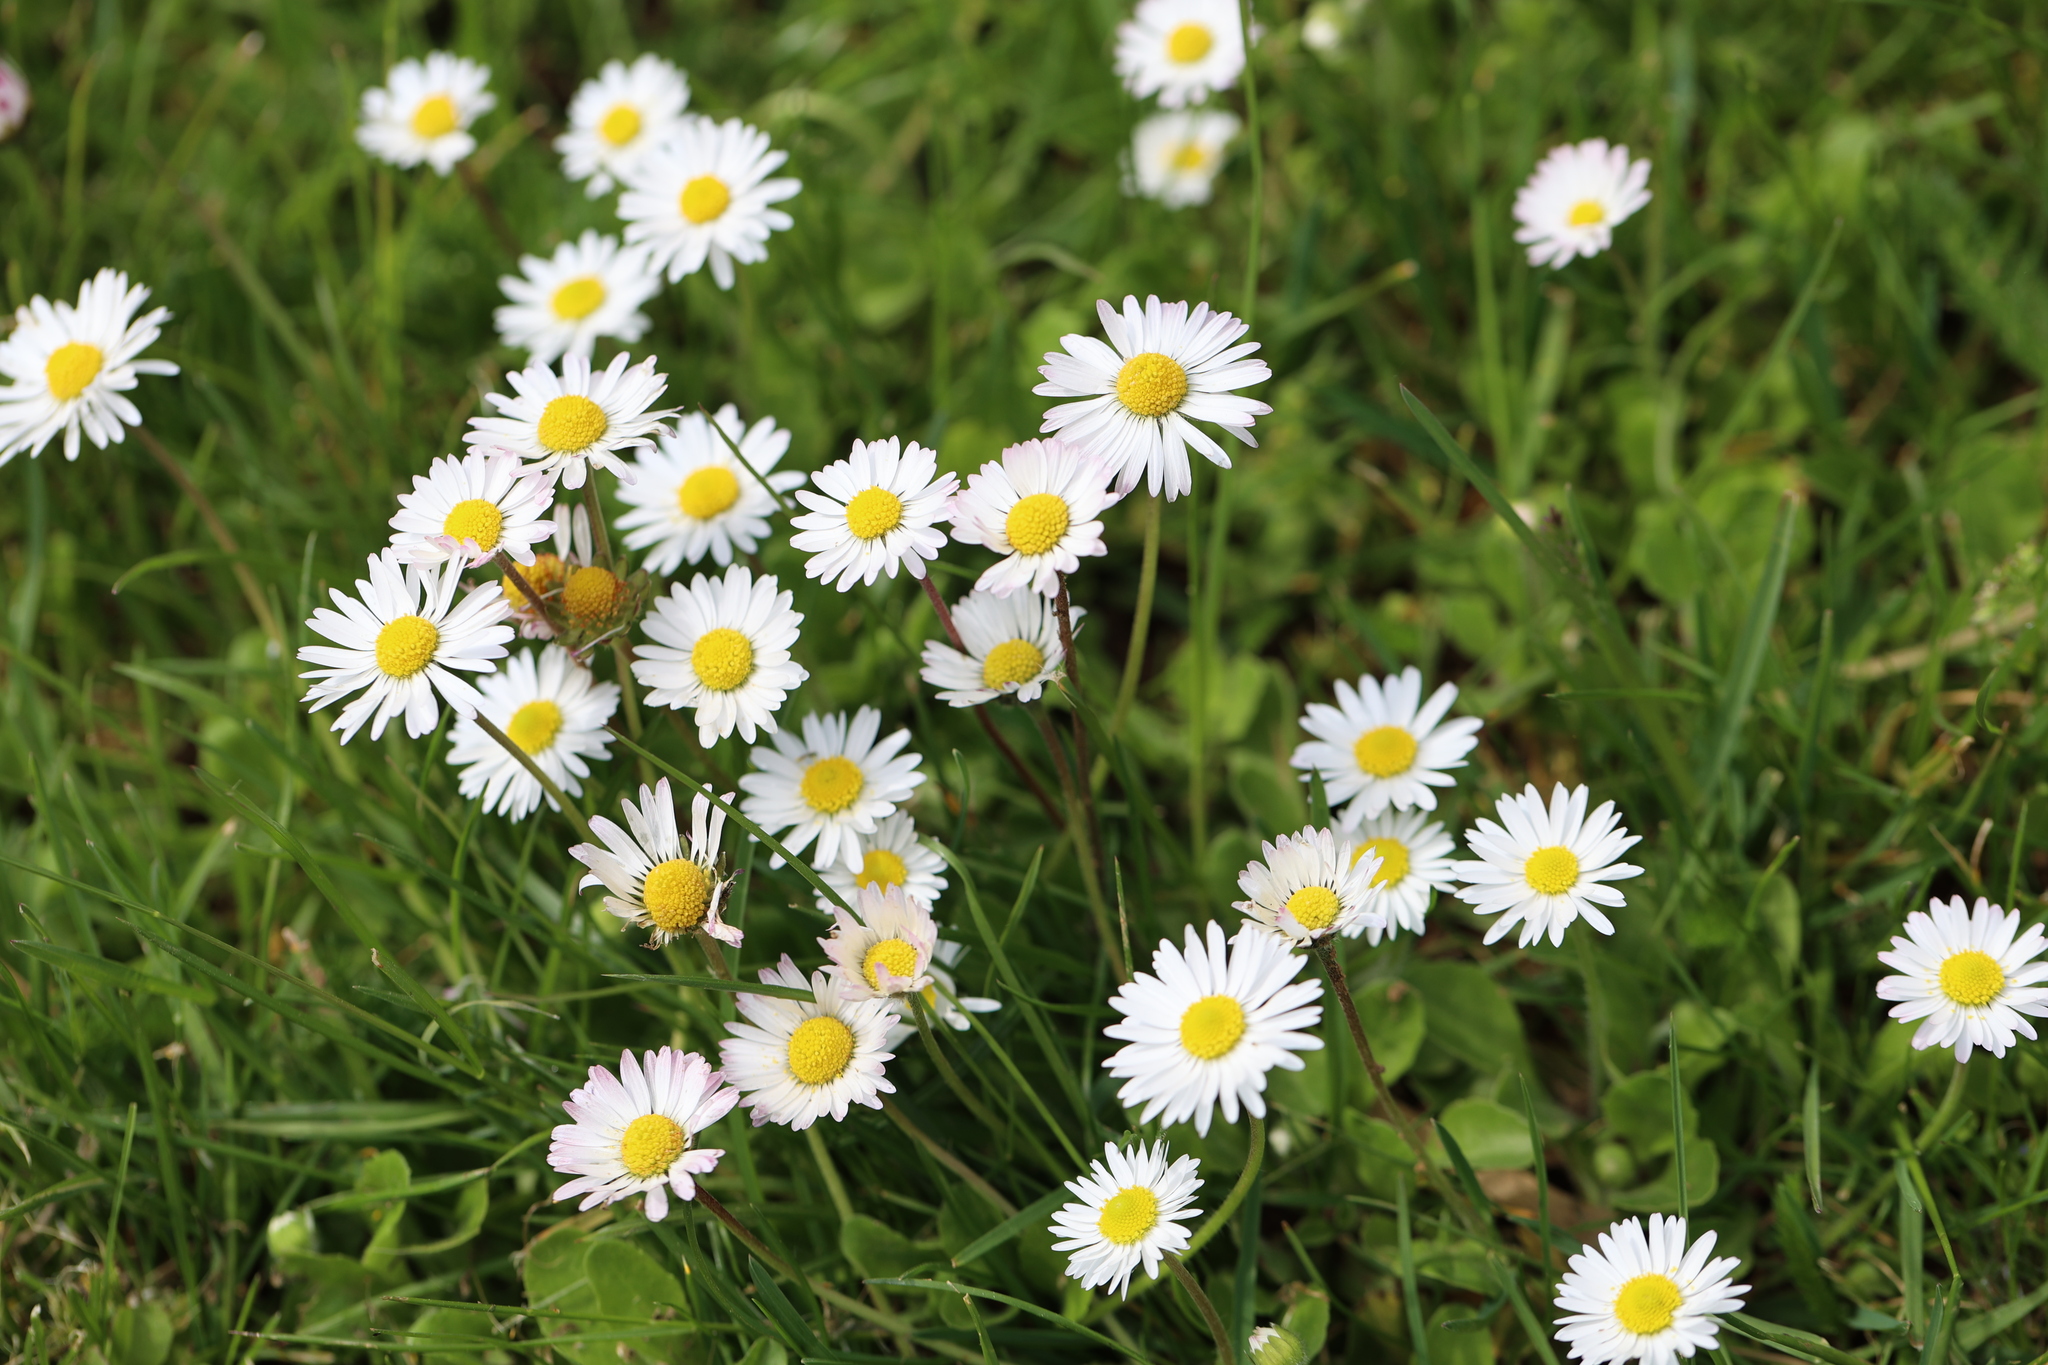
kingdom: Plantae
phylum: Tracheophyta
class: Magnoliopsida
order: Asterales
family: Asteraceae
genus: Bellis
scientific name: Bellis perennis
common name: Lawndaisy
